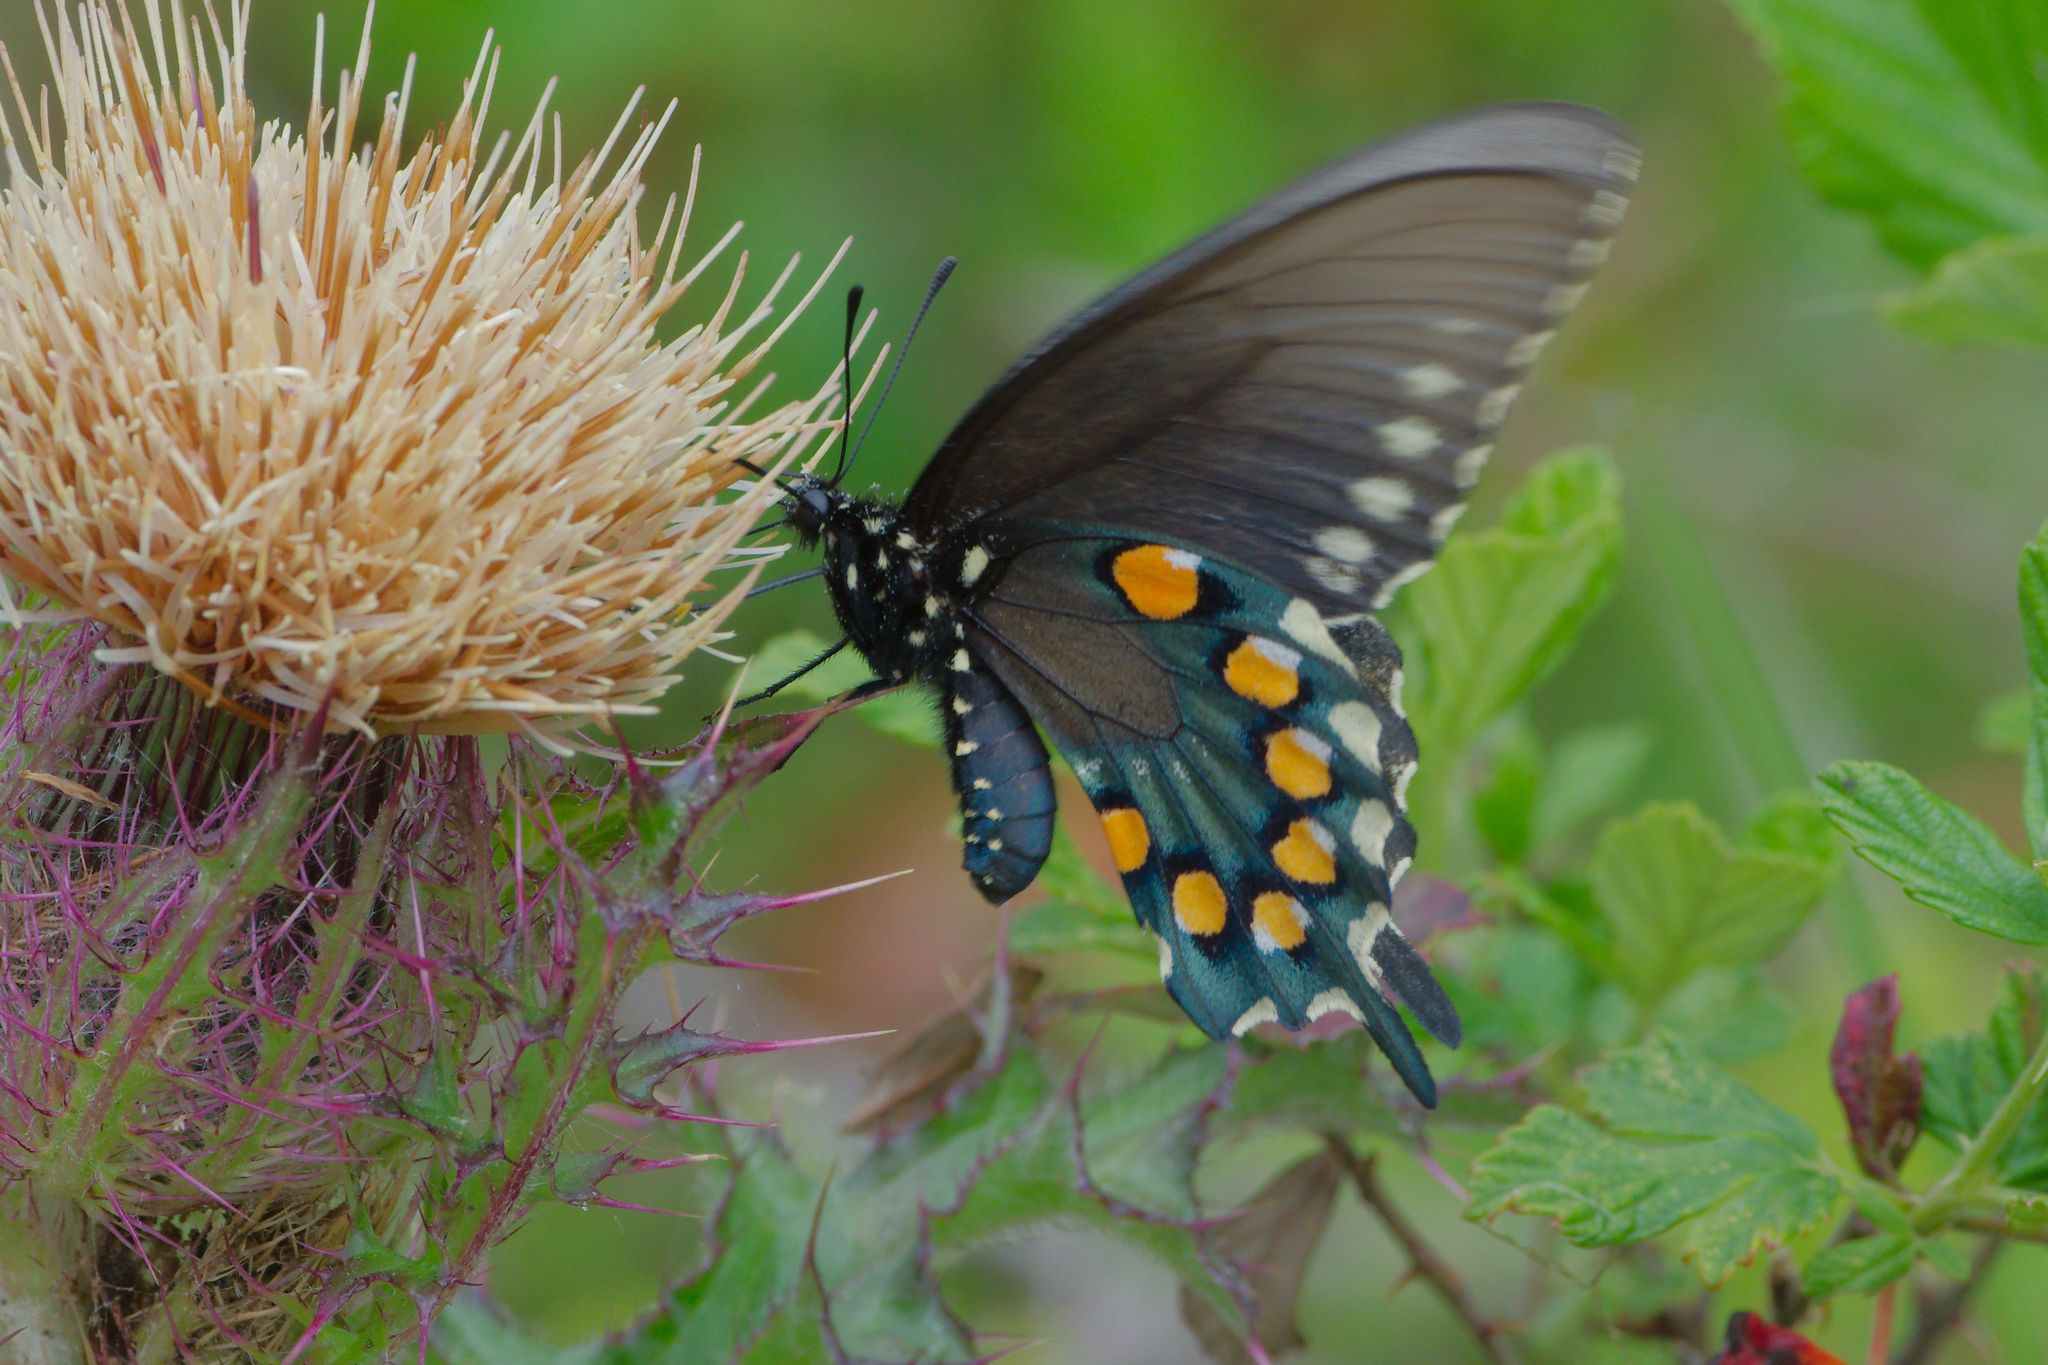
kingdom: Animalia
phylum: Arthropoda
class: Insecta
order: Lepidoptera
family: Papilionidae
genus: Battus
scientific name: Battus philenor
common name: Pipevine swallowtail
